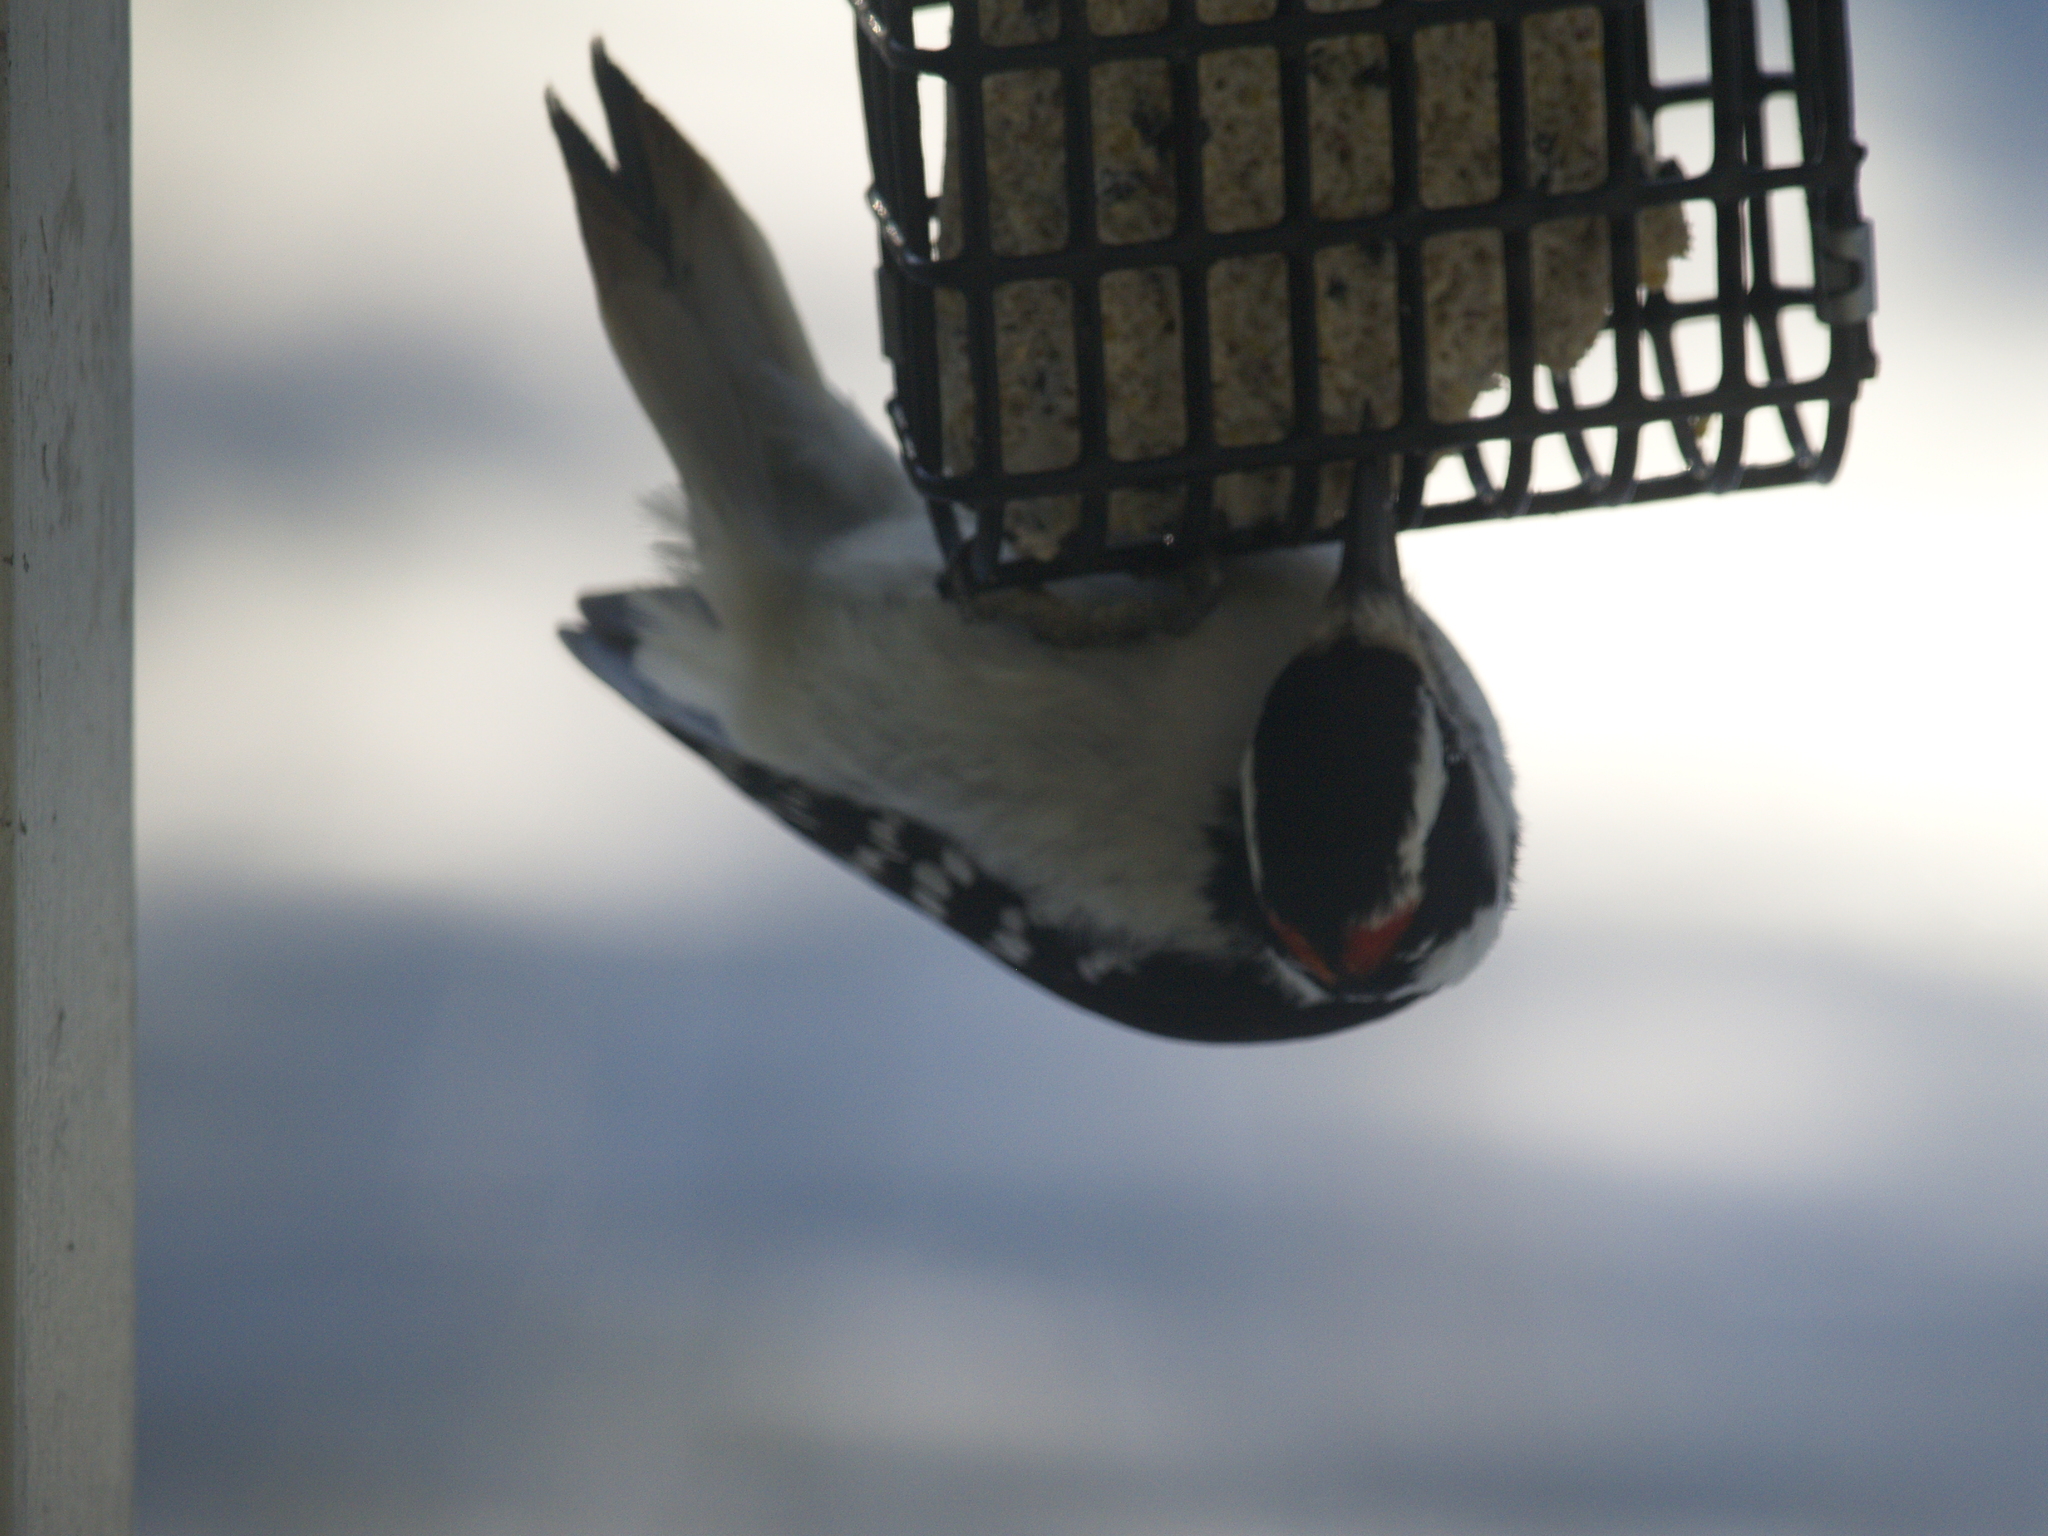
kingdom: Animalia
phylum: Chordata
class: Aves
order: Piciformes
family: Picidae
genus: Dryobates
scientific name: Dryobates pubescens
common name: Downy woodpecker
